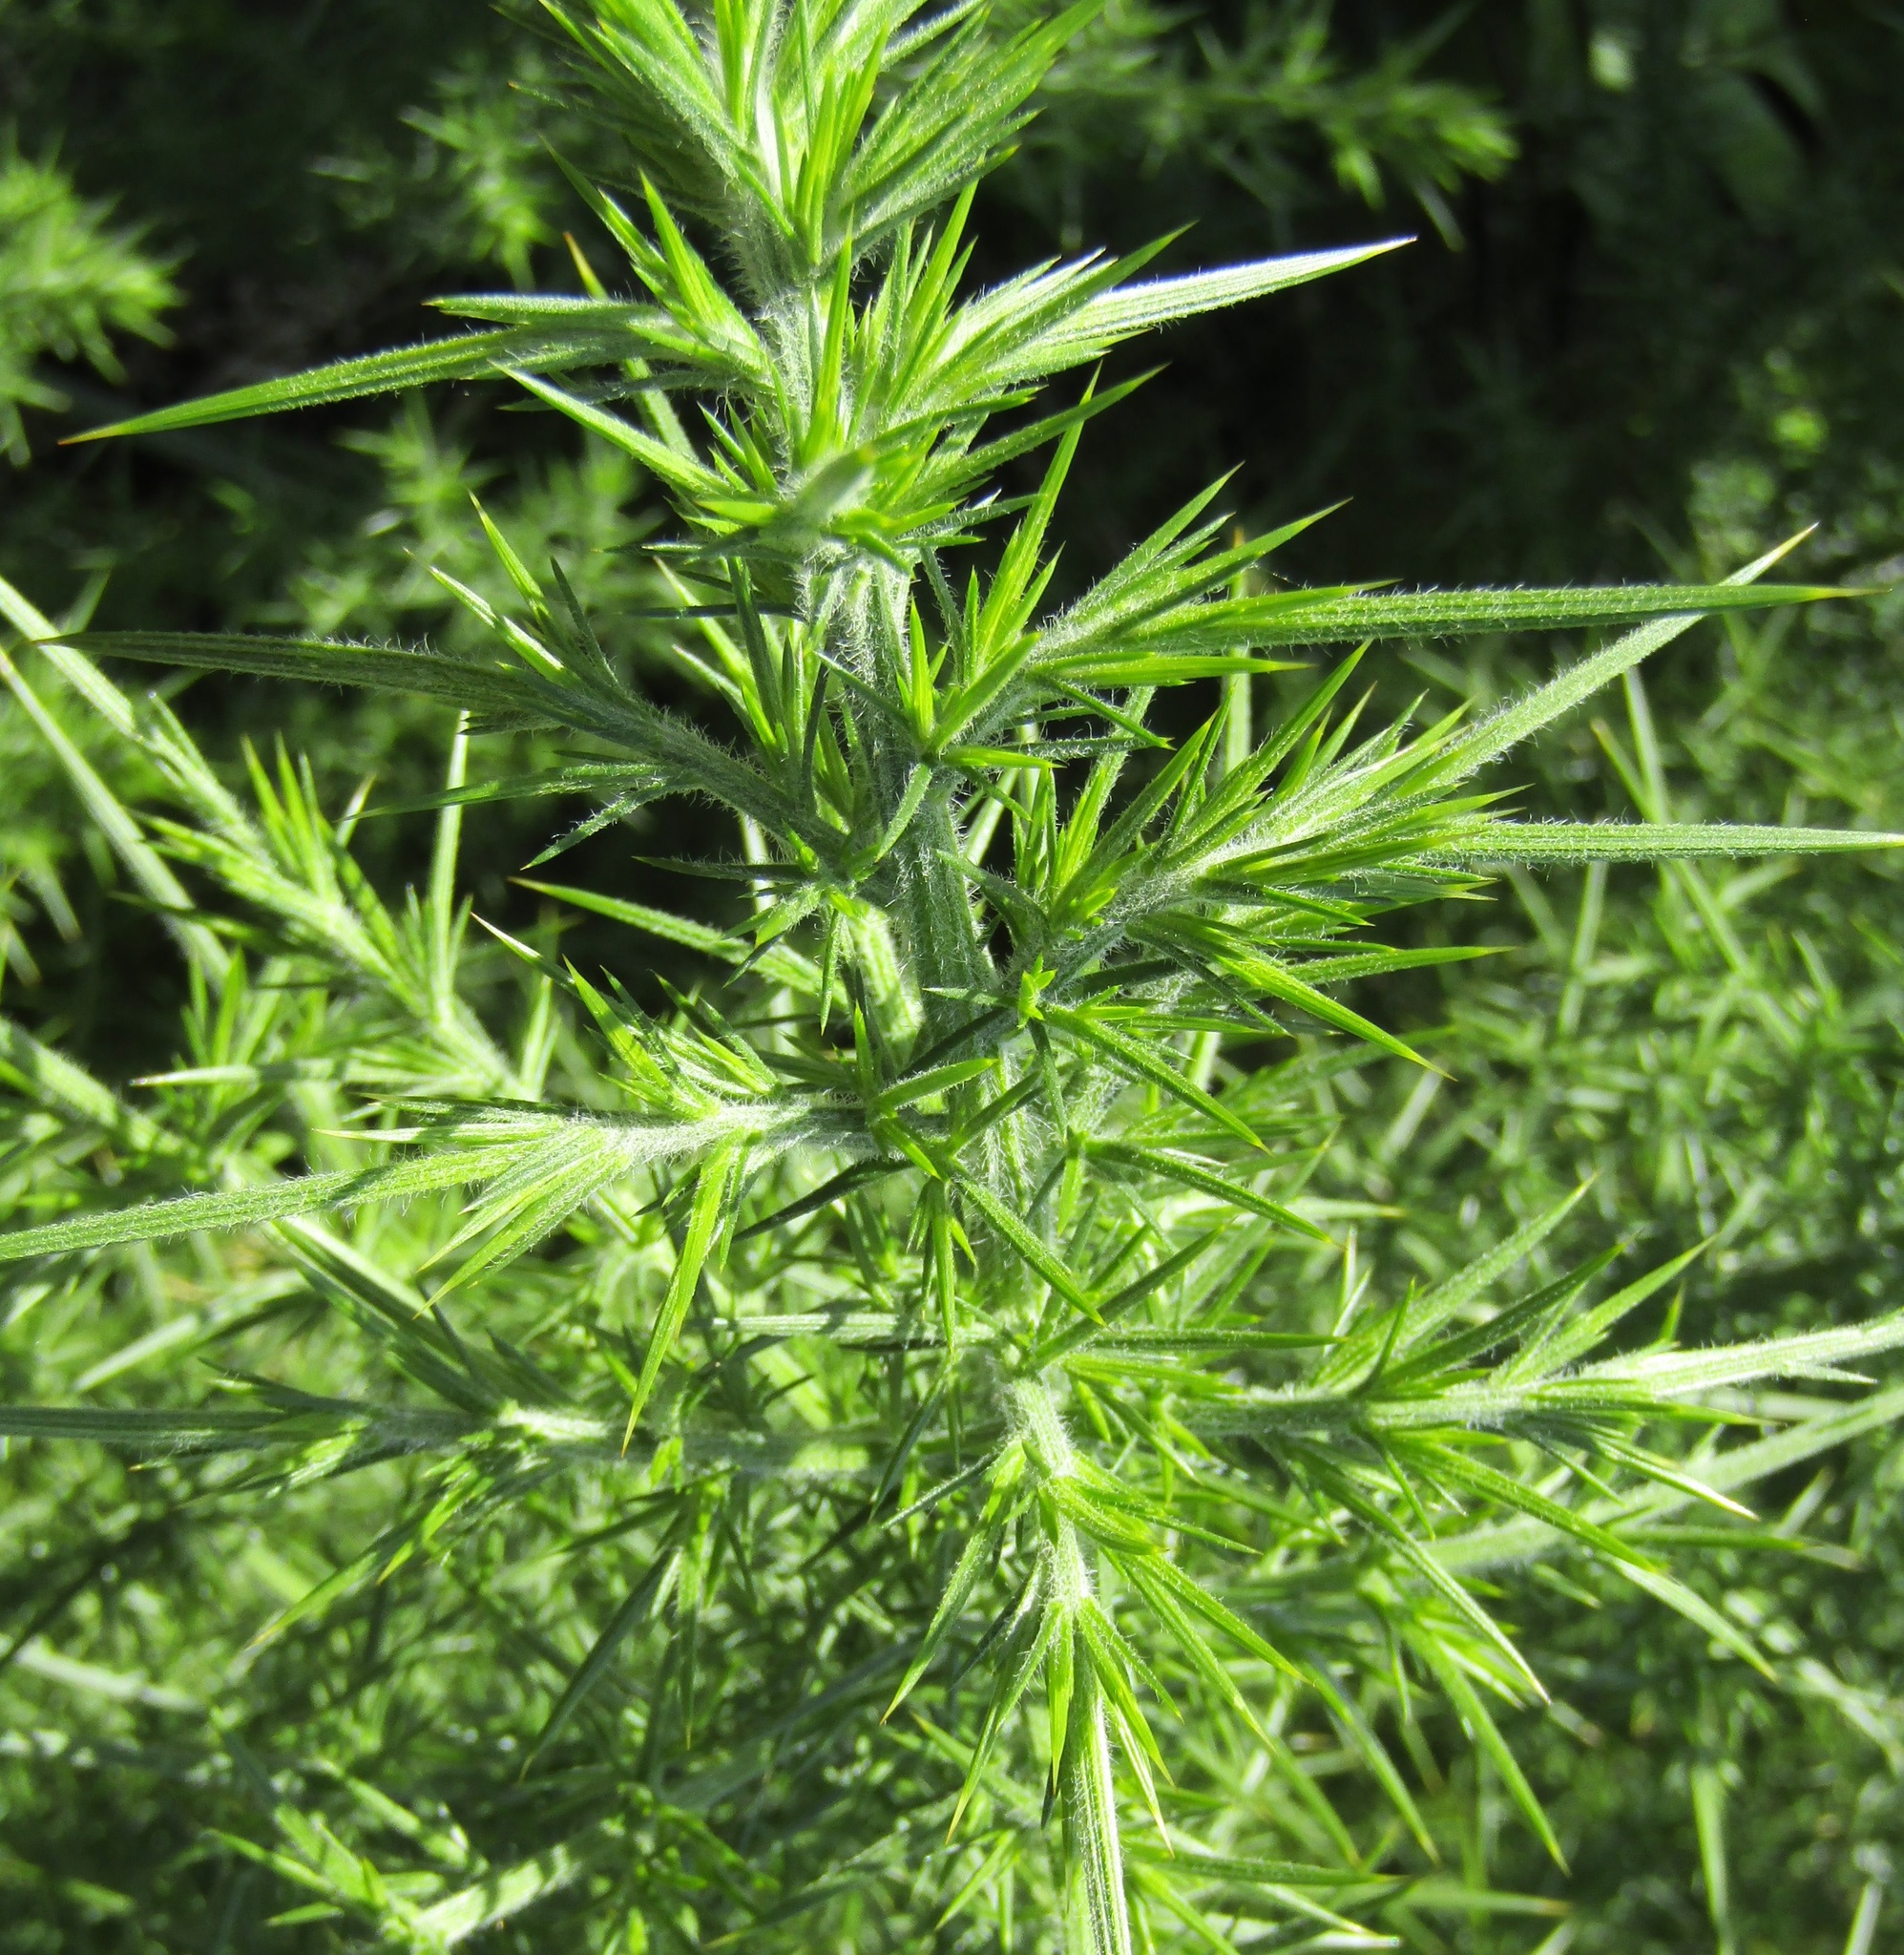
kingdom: Plantae
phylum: Tracheophyta
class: Magnoliopsida
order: Fabales
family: Fabaceae
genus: Ulex
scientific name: Ulex europaeus
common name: Common gorse
